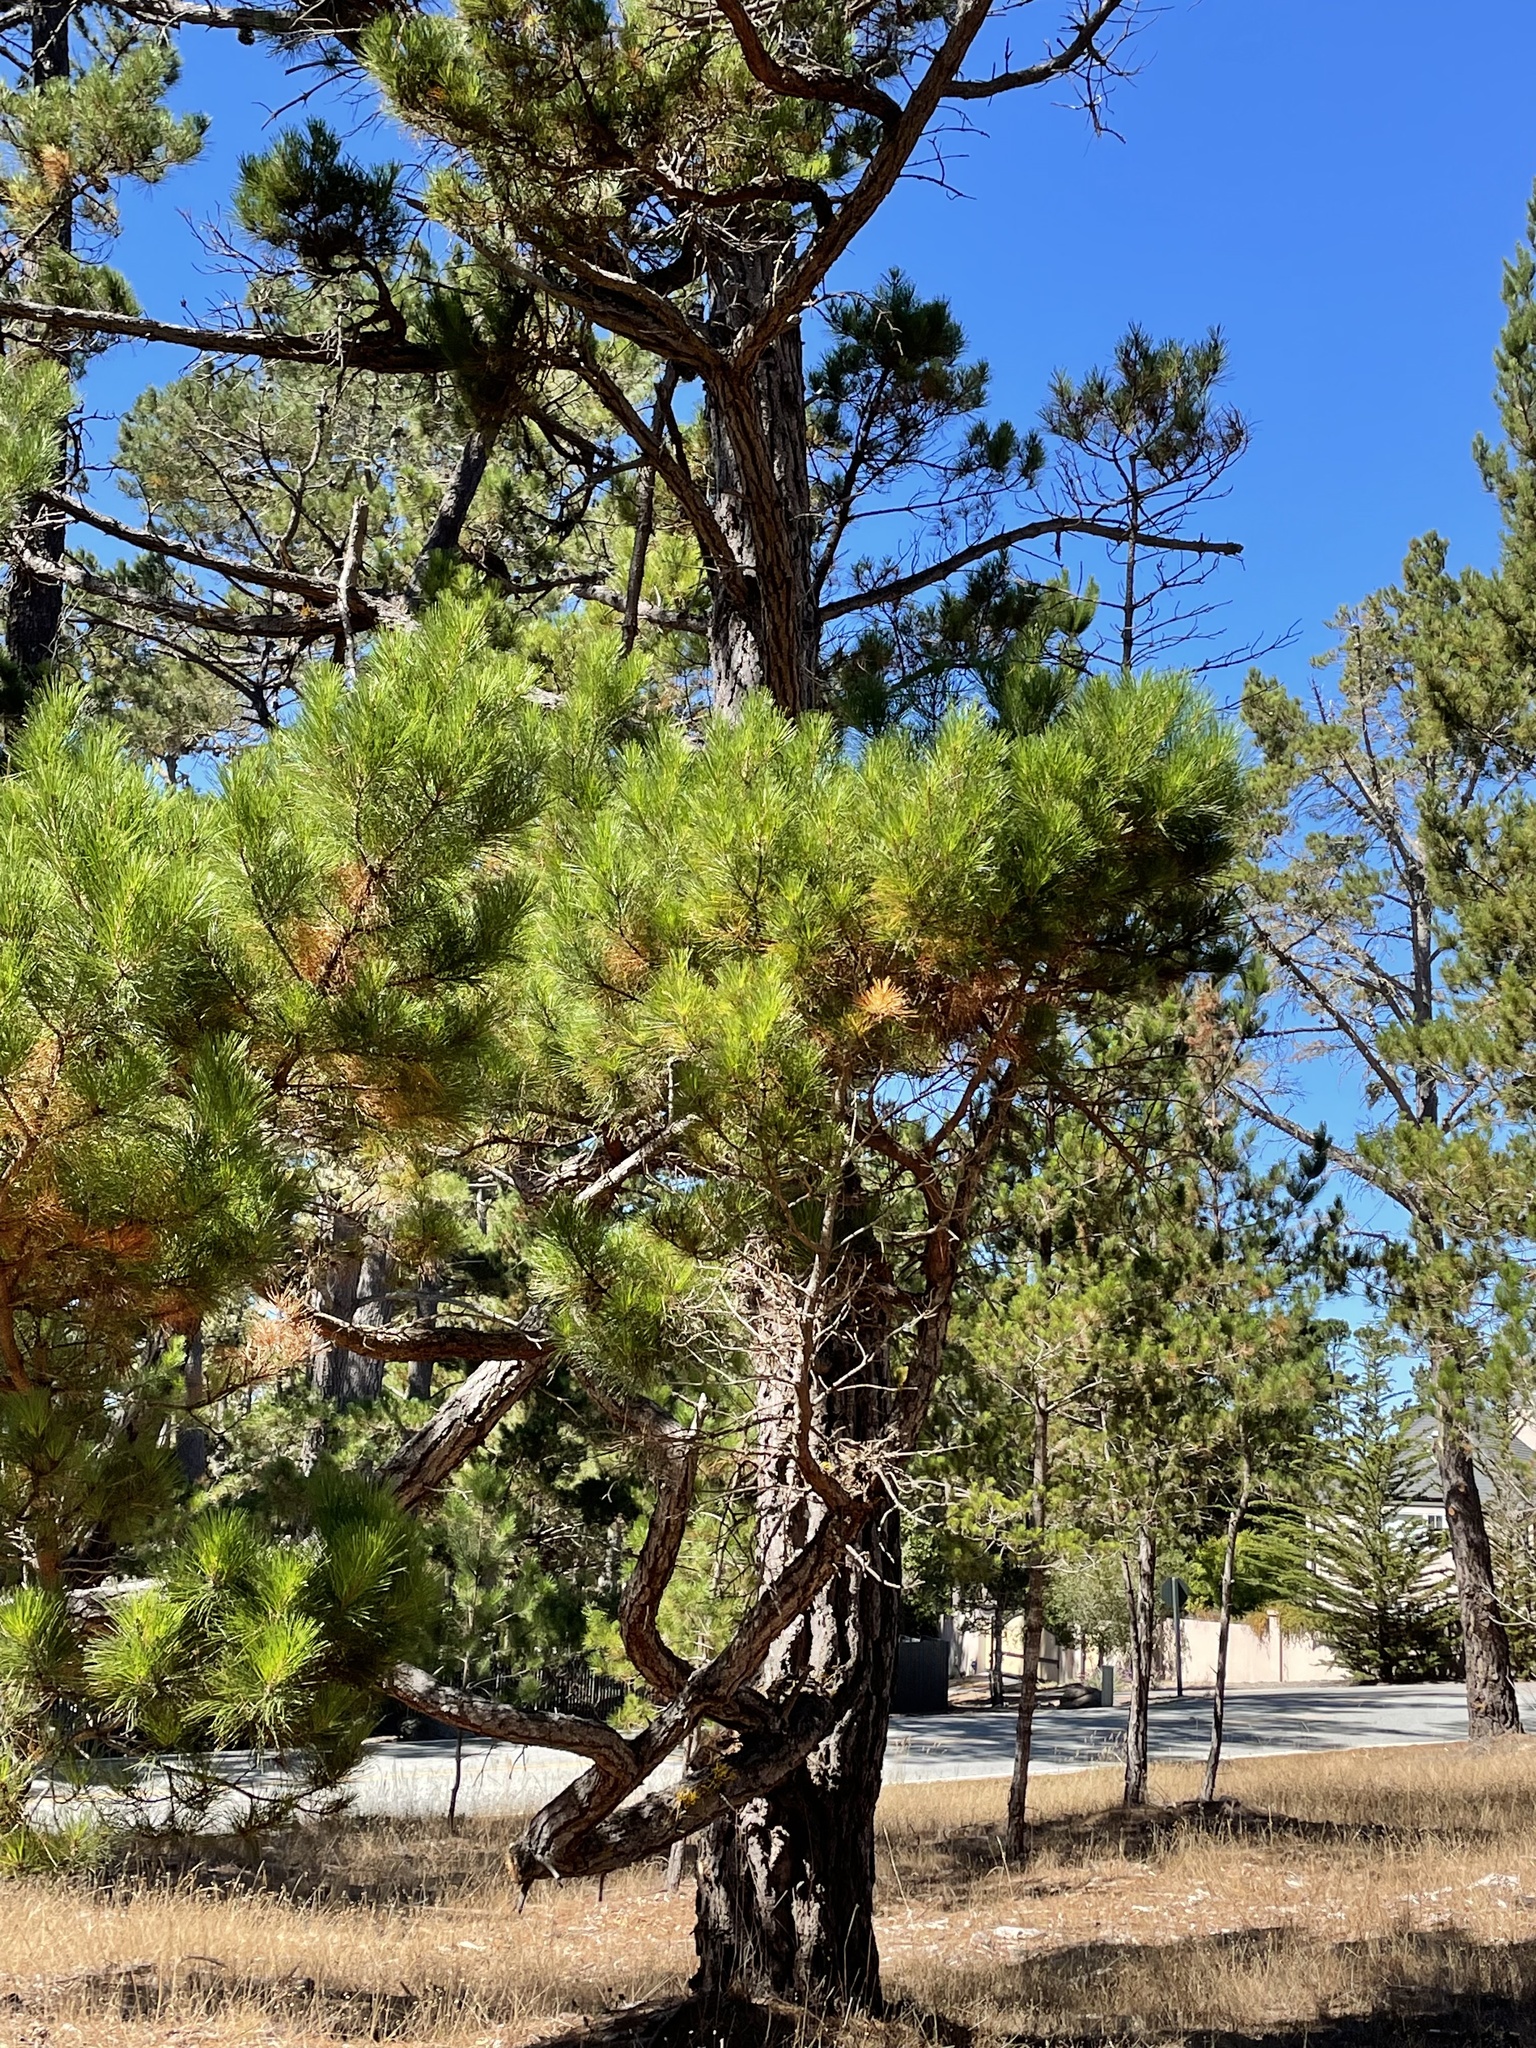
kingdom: Plantae
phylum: Tracheophyta
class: Pinopsida
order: Pinales
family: Pinaceae
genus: Pinus
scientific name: Pinus radiata
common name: Monterey pine
